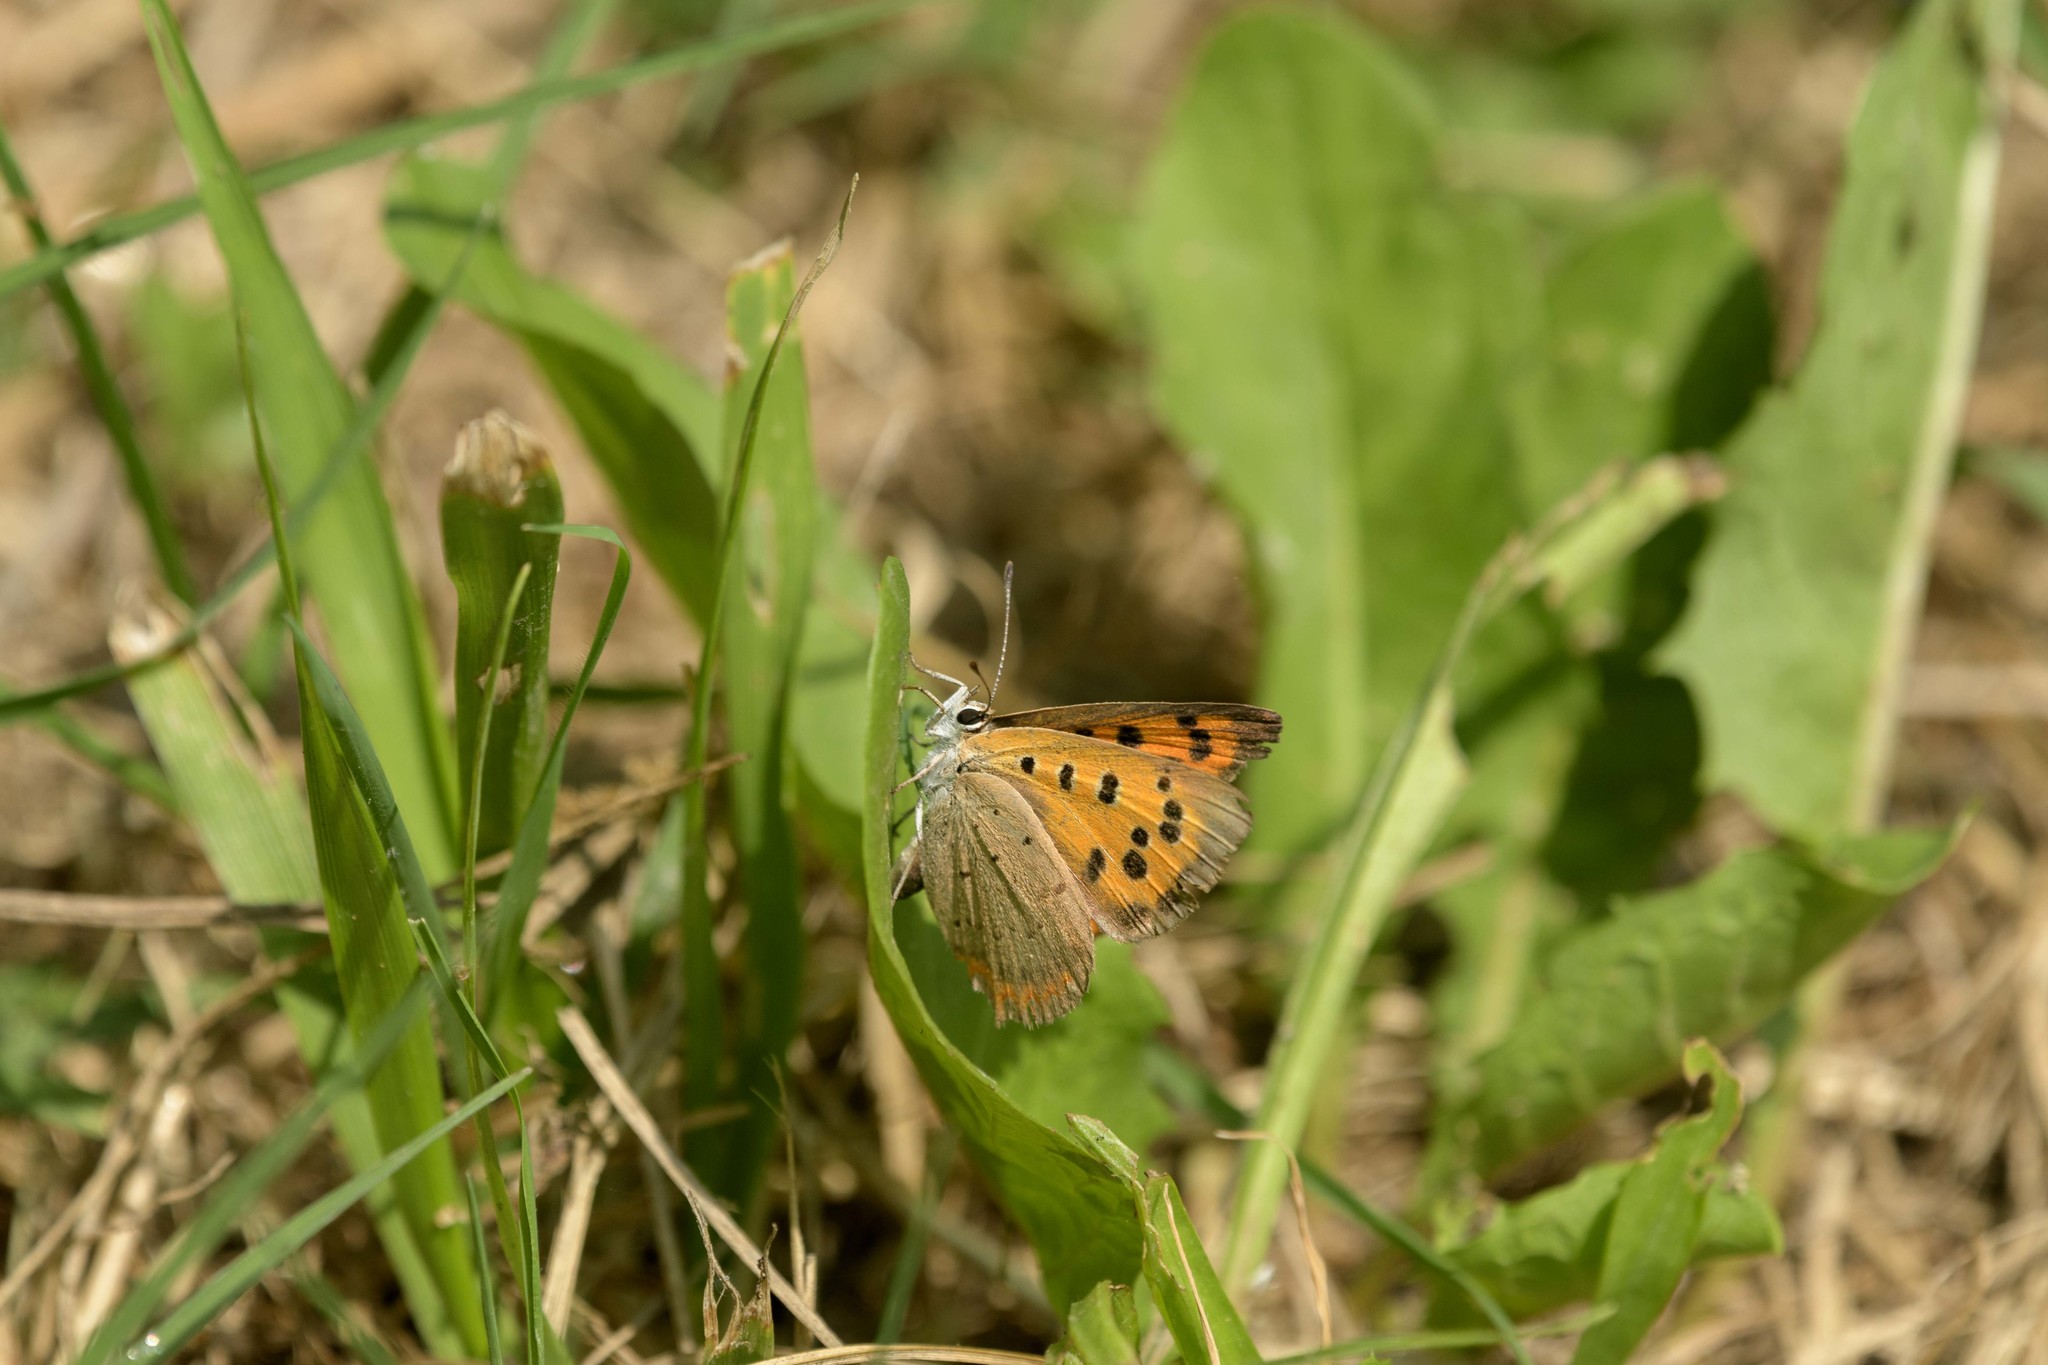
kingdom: Animalia
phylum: Arthropoda
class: Insecta
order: Lepidoptera
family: Lycaenidae
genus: Lycaena
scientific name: Lycaena phlaeas
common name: Small copper
